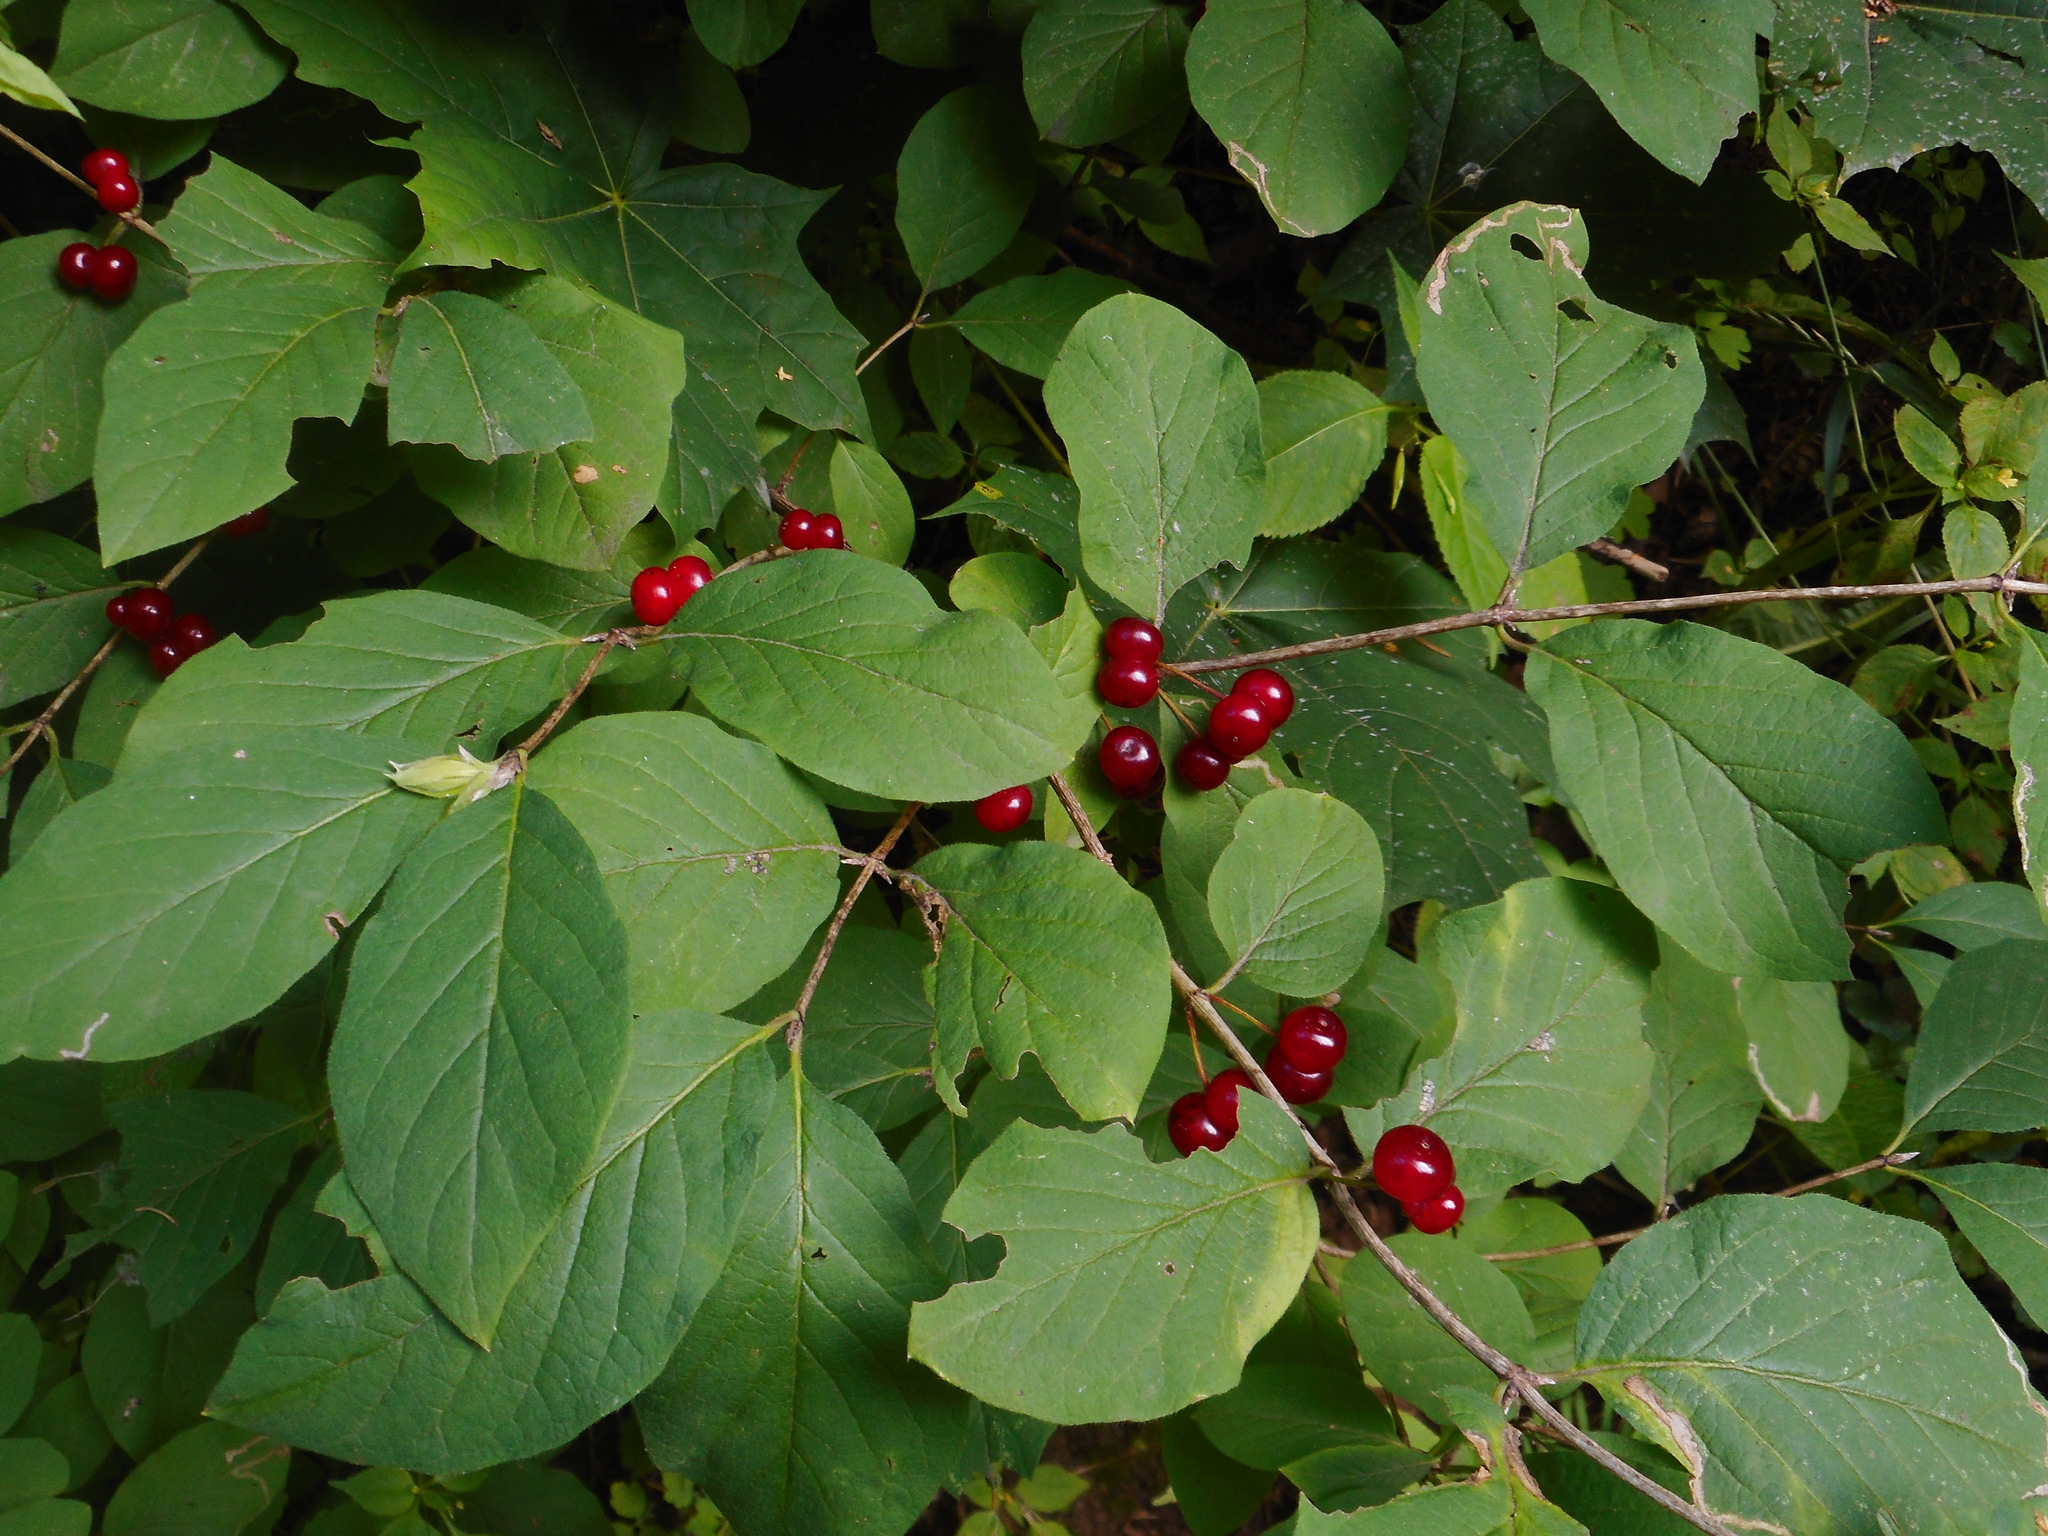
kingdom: Plantae
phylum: Tracheophyta
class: Magnoliopsida
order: Dipsacales
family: Caprifoliaceae
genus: Lonicera
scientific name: Lonicera xylosteum
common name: Fly honeysuckle
